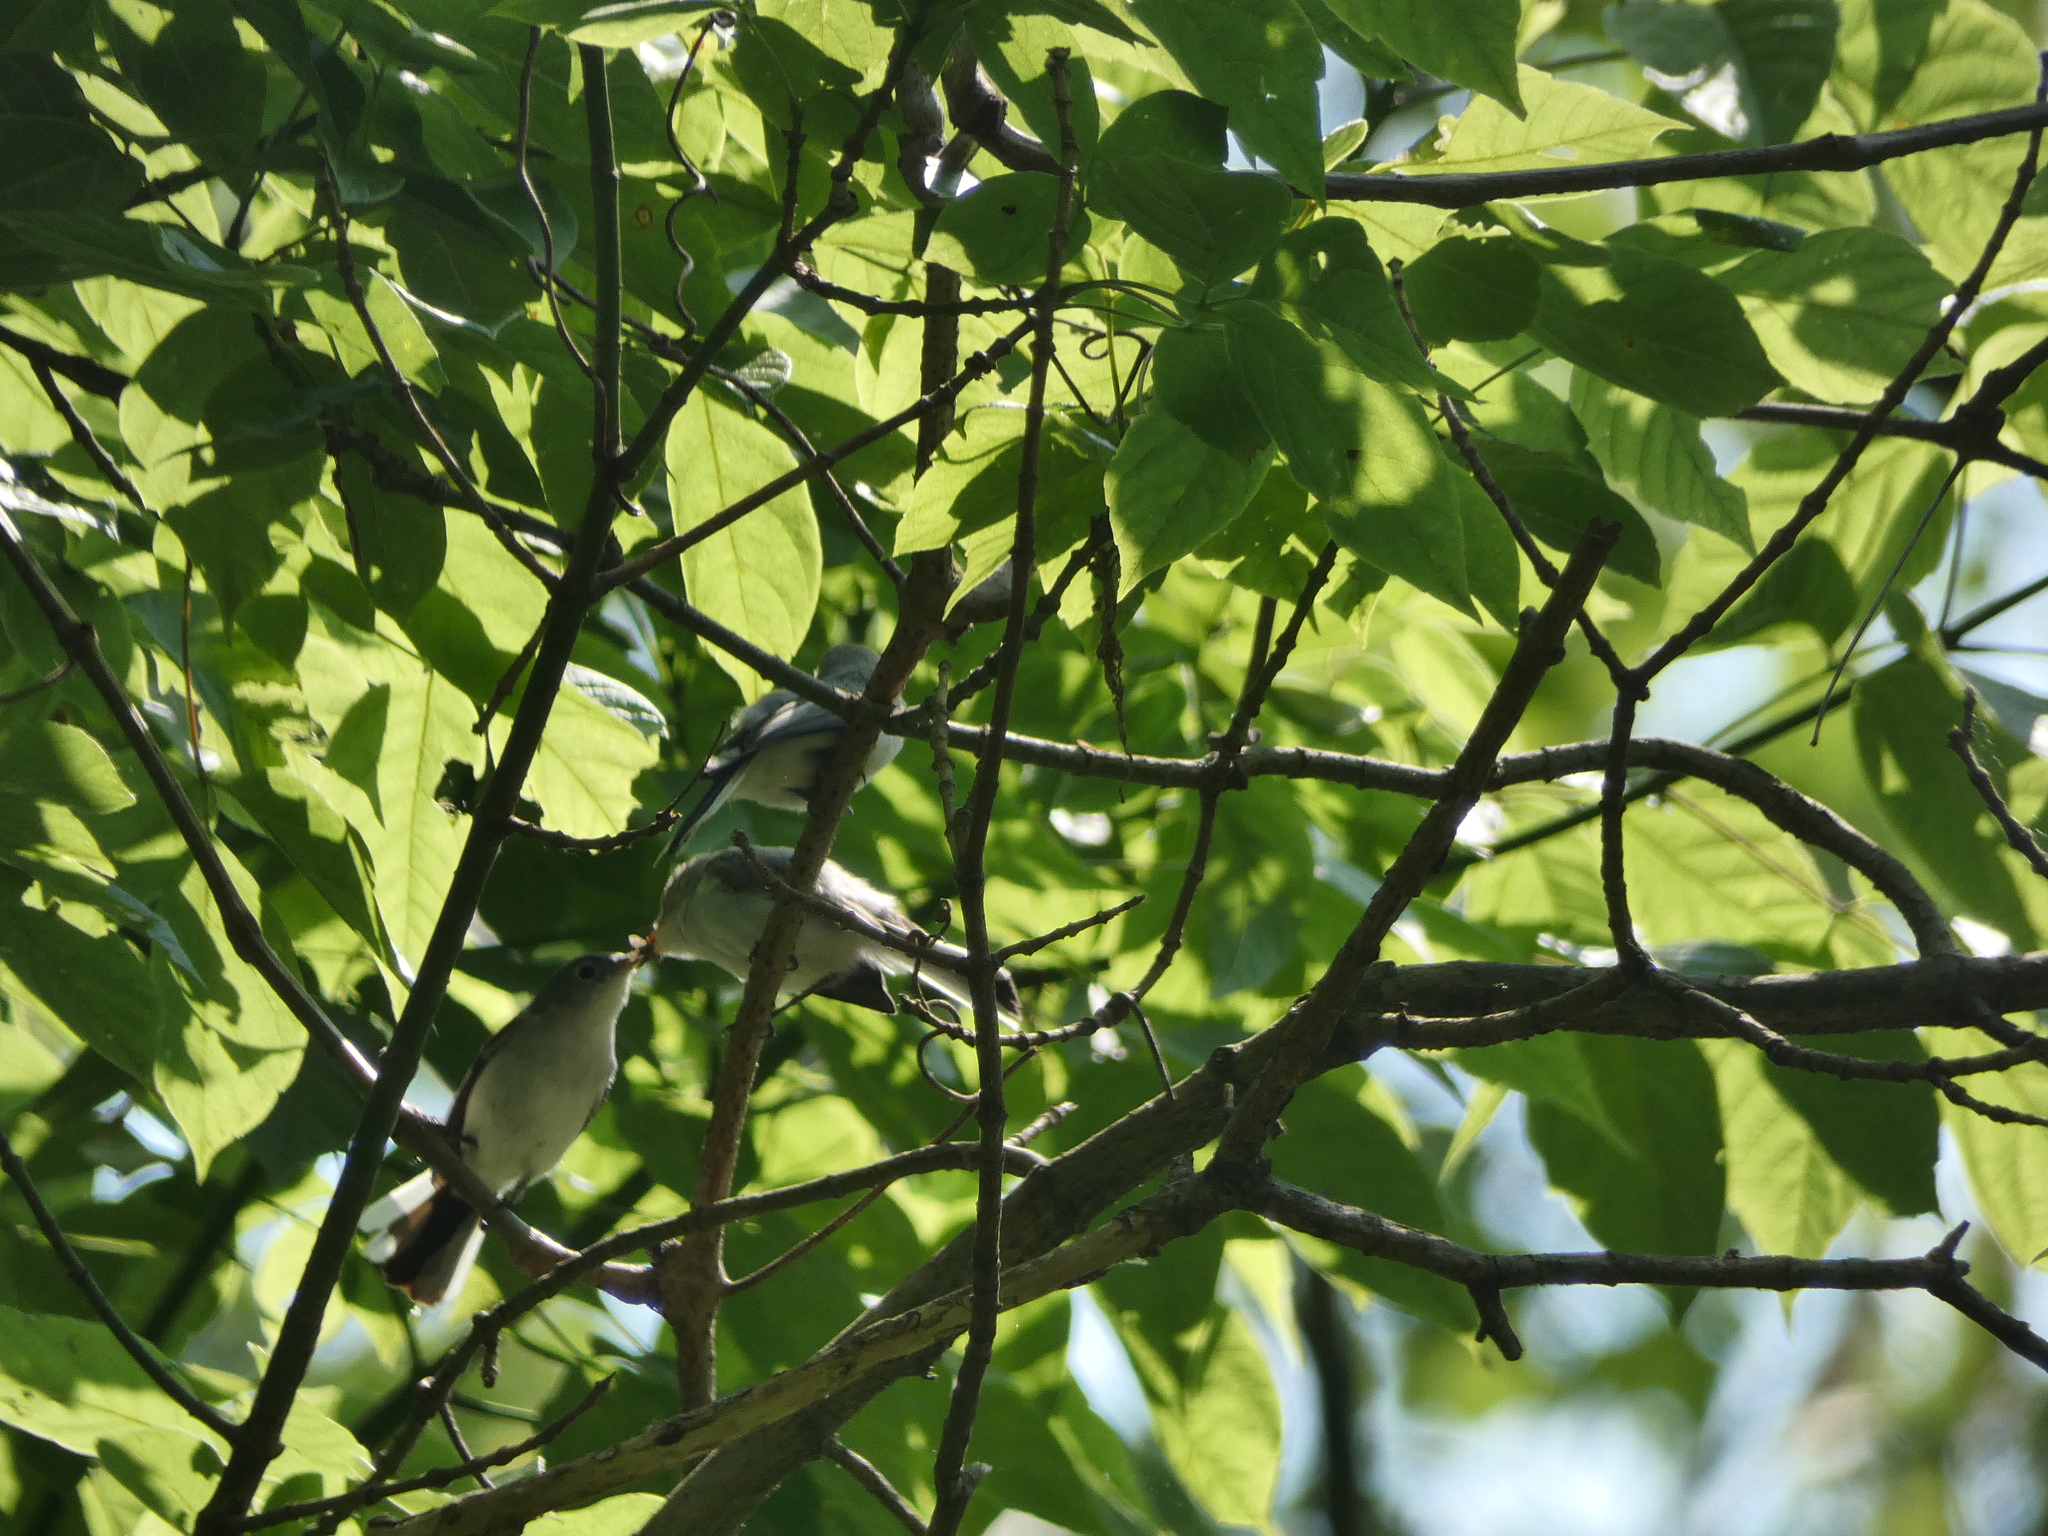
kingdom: Animalia
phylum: Chordata
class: Aves
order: Passeriformes
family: Polioptilidae
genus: Polioptila
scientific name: Polioptila caerulea
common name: Blue-gray gnatcatcher
